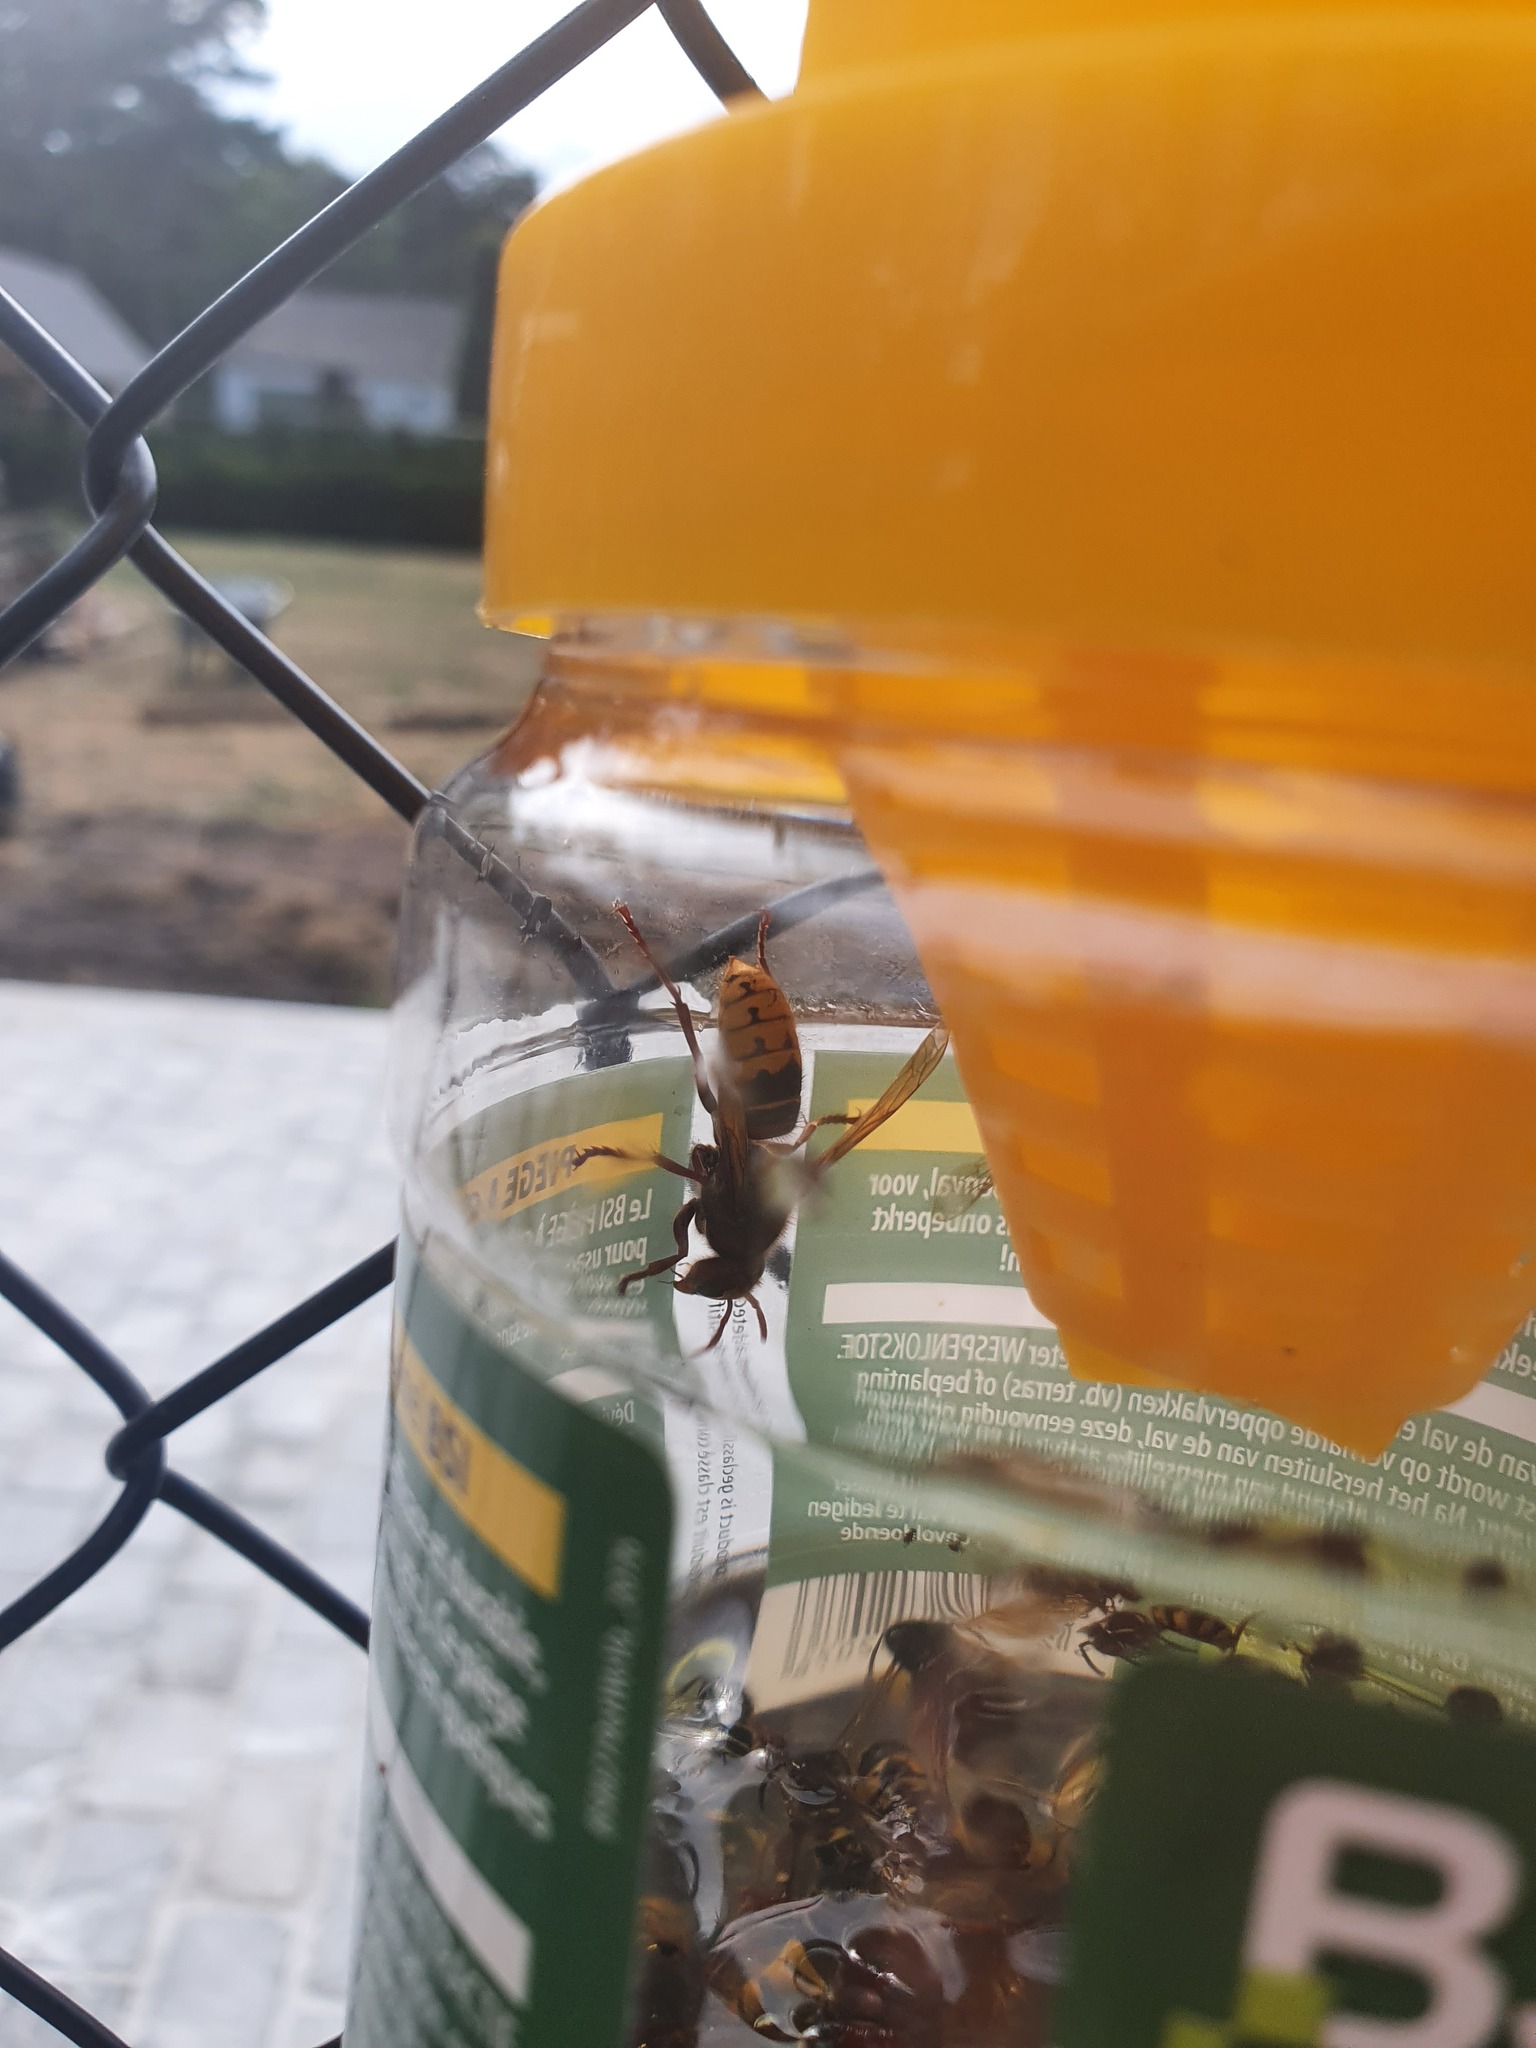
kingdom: Animalia
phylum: Arthropoda
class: Insecta
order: Hymenoptera
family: Vespidae
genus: Vespa
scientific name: Vespa crabro
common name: Hornet
